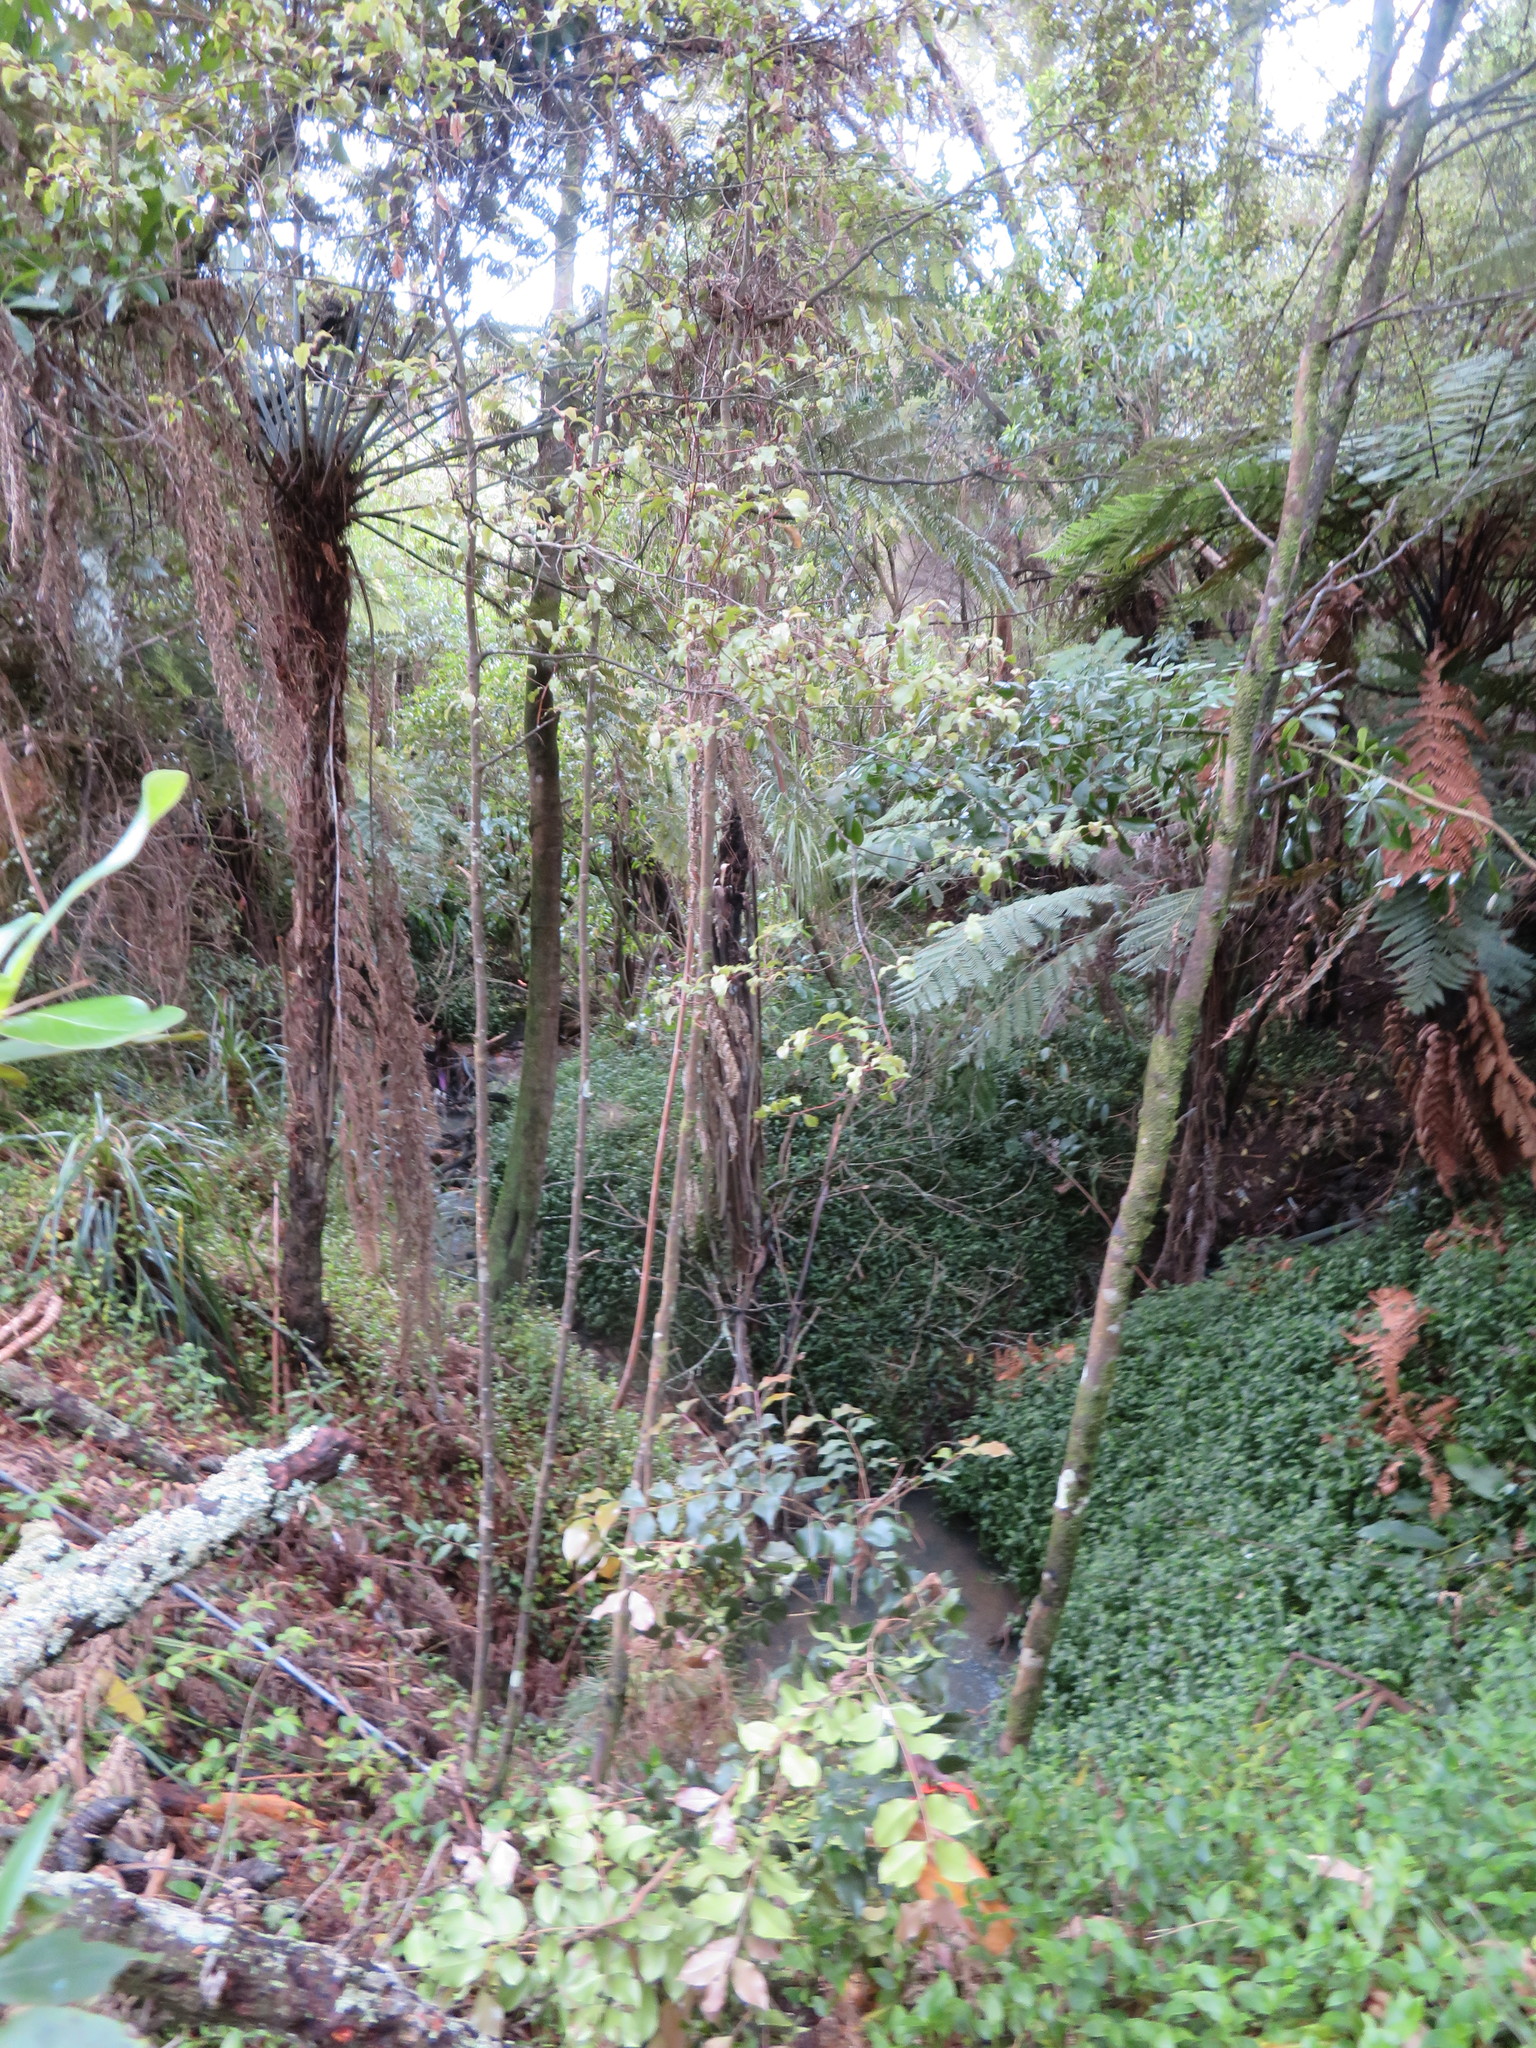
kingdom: Plantae
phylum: Tracheophyta
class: Pinopsida
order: Pinales
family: Phyllocladaceae
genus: Phyllocladus
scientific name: Phyllocladus trichomanoides
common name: Celery pine
